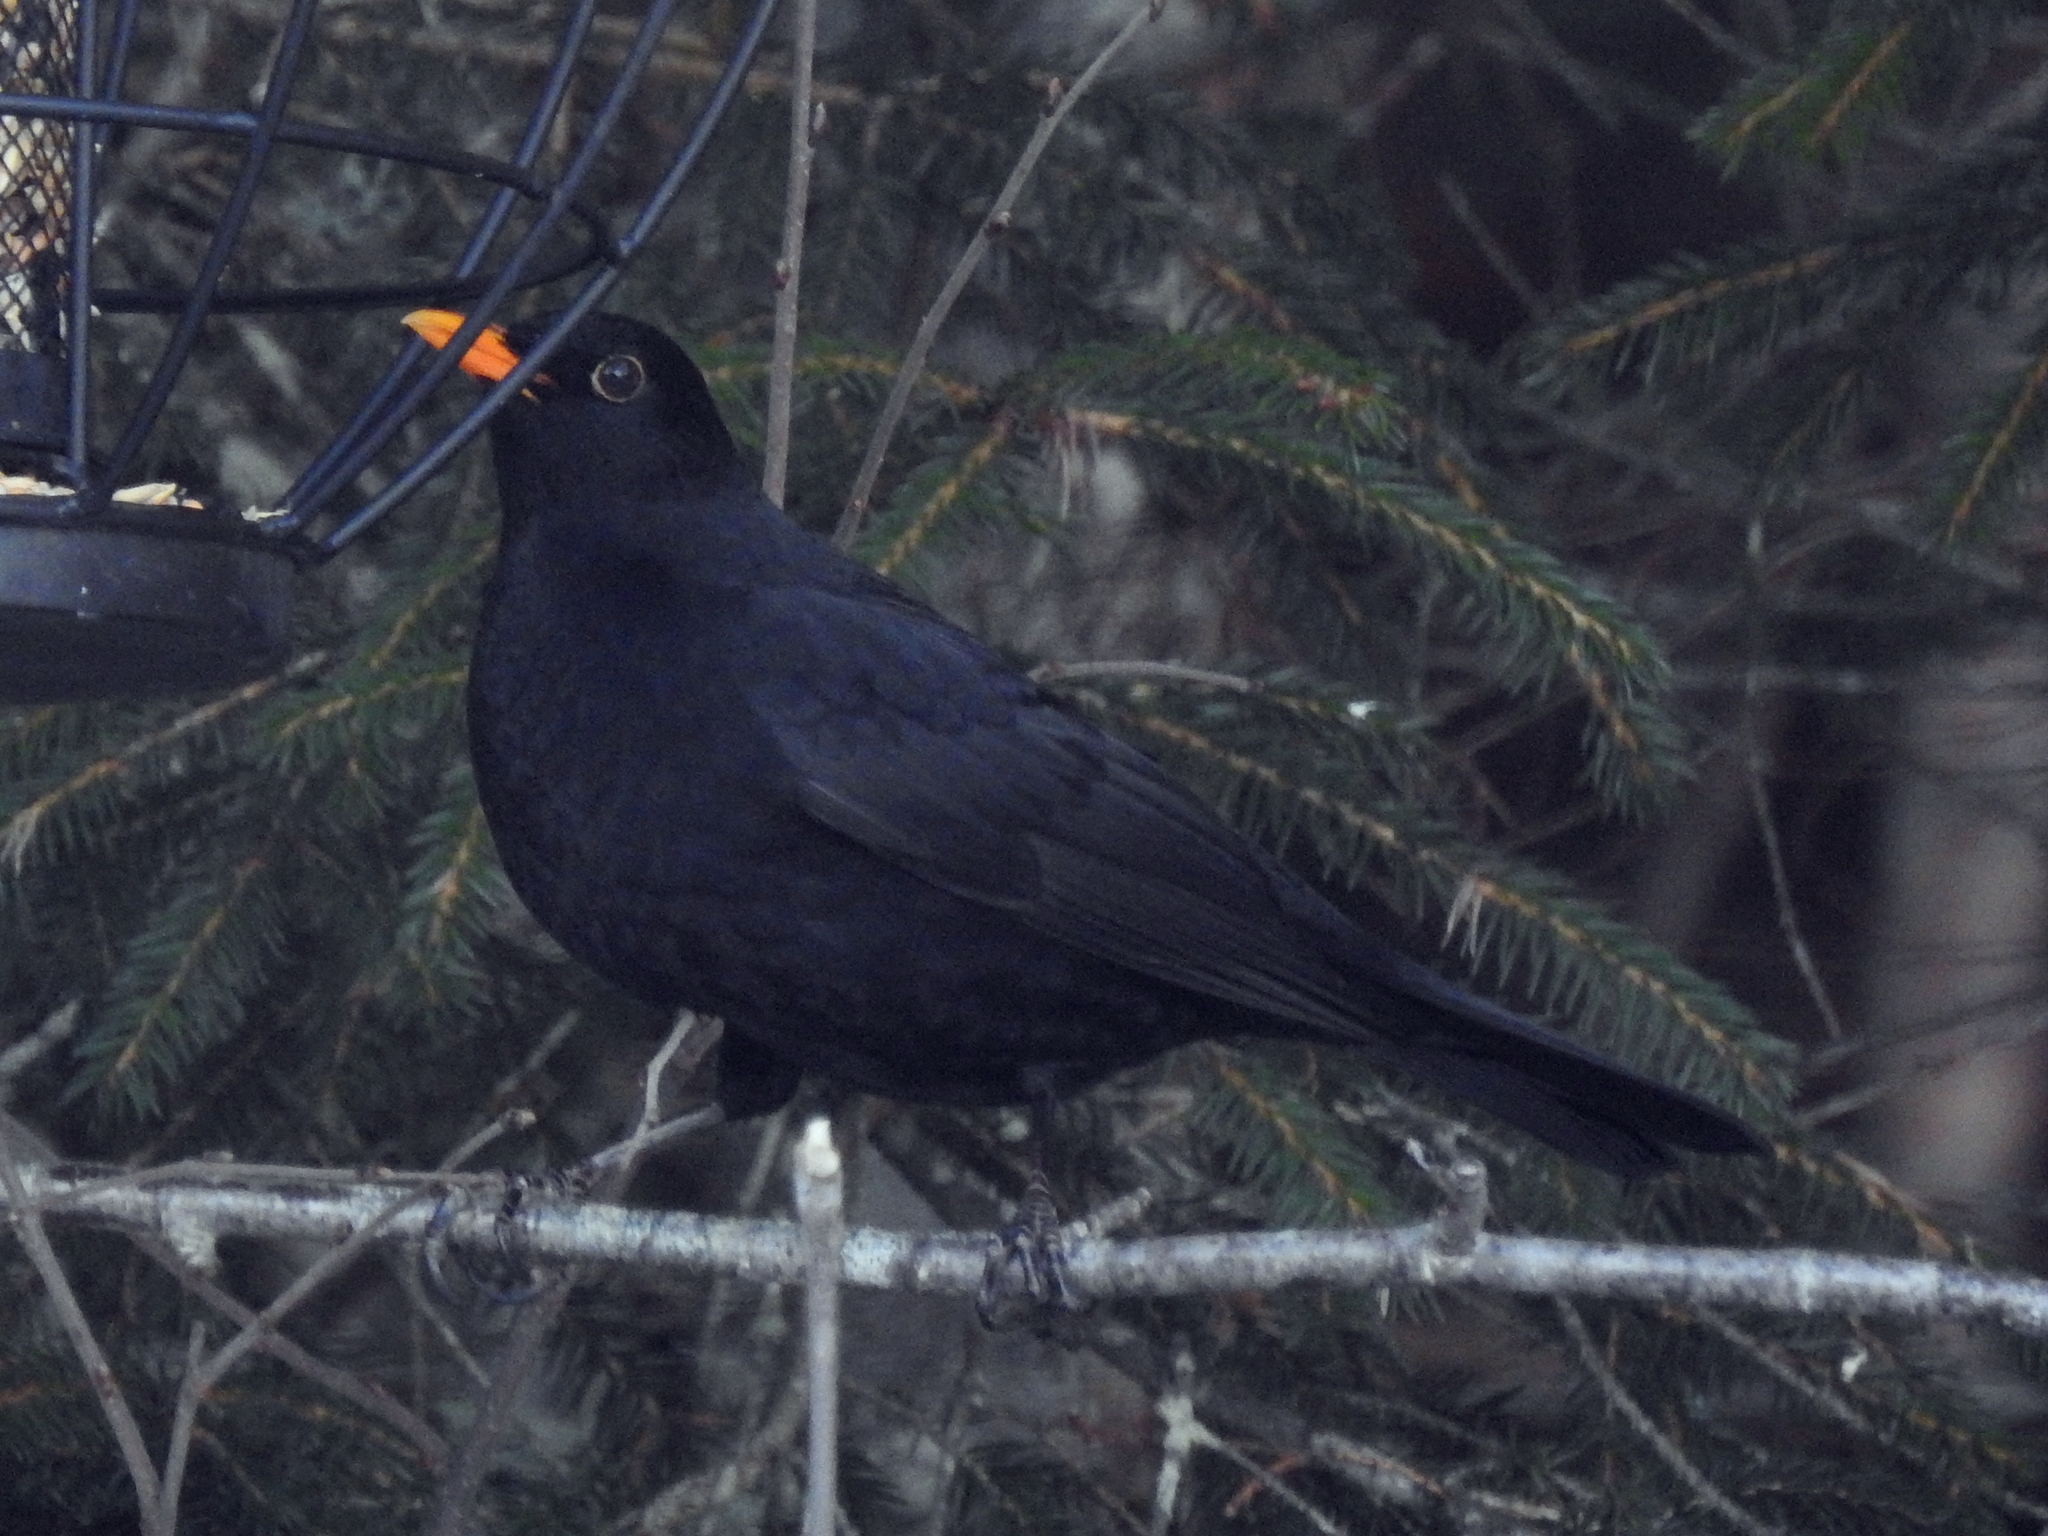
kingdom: Animalia
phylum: Chordata
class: Aves
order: Passeriformes
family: Turdidae
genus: Turdus
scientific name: Turdus merula
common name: Common blackbird
